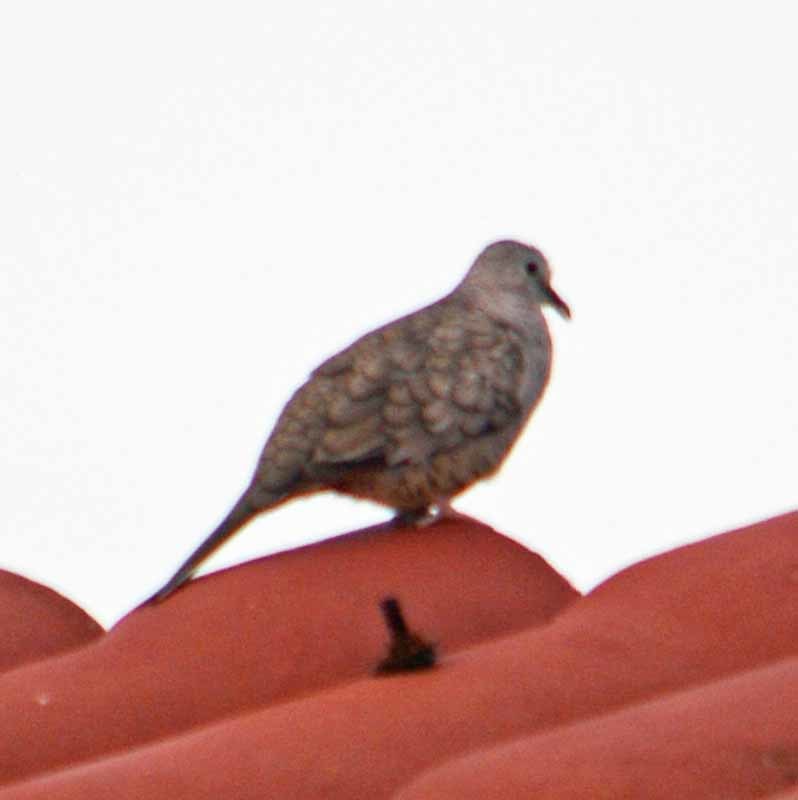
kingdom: Animalia
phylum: Chordata
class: Aves
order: Columbiformes
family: Columbidae
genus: Columbina
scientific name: Columbina inca
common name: Inca dove
